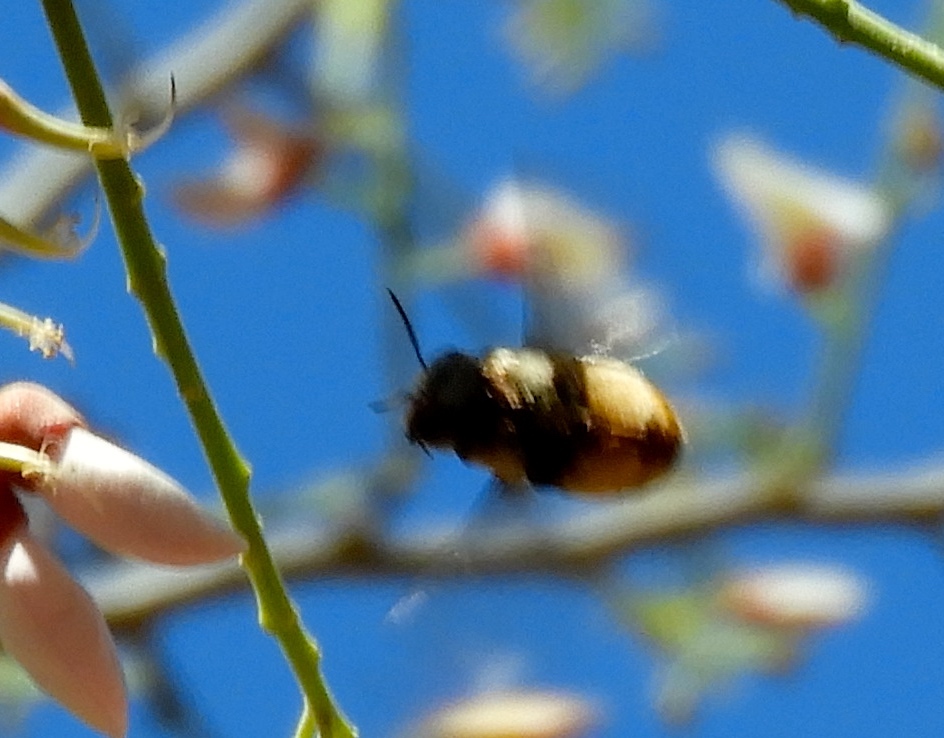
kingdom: Animalia
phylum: Arthropoda
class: Insecta
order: Hymenoptera
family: Apidae
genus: Centris
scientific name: Centris
